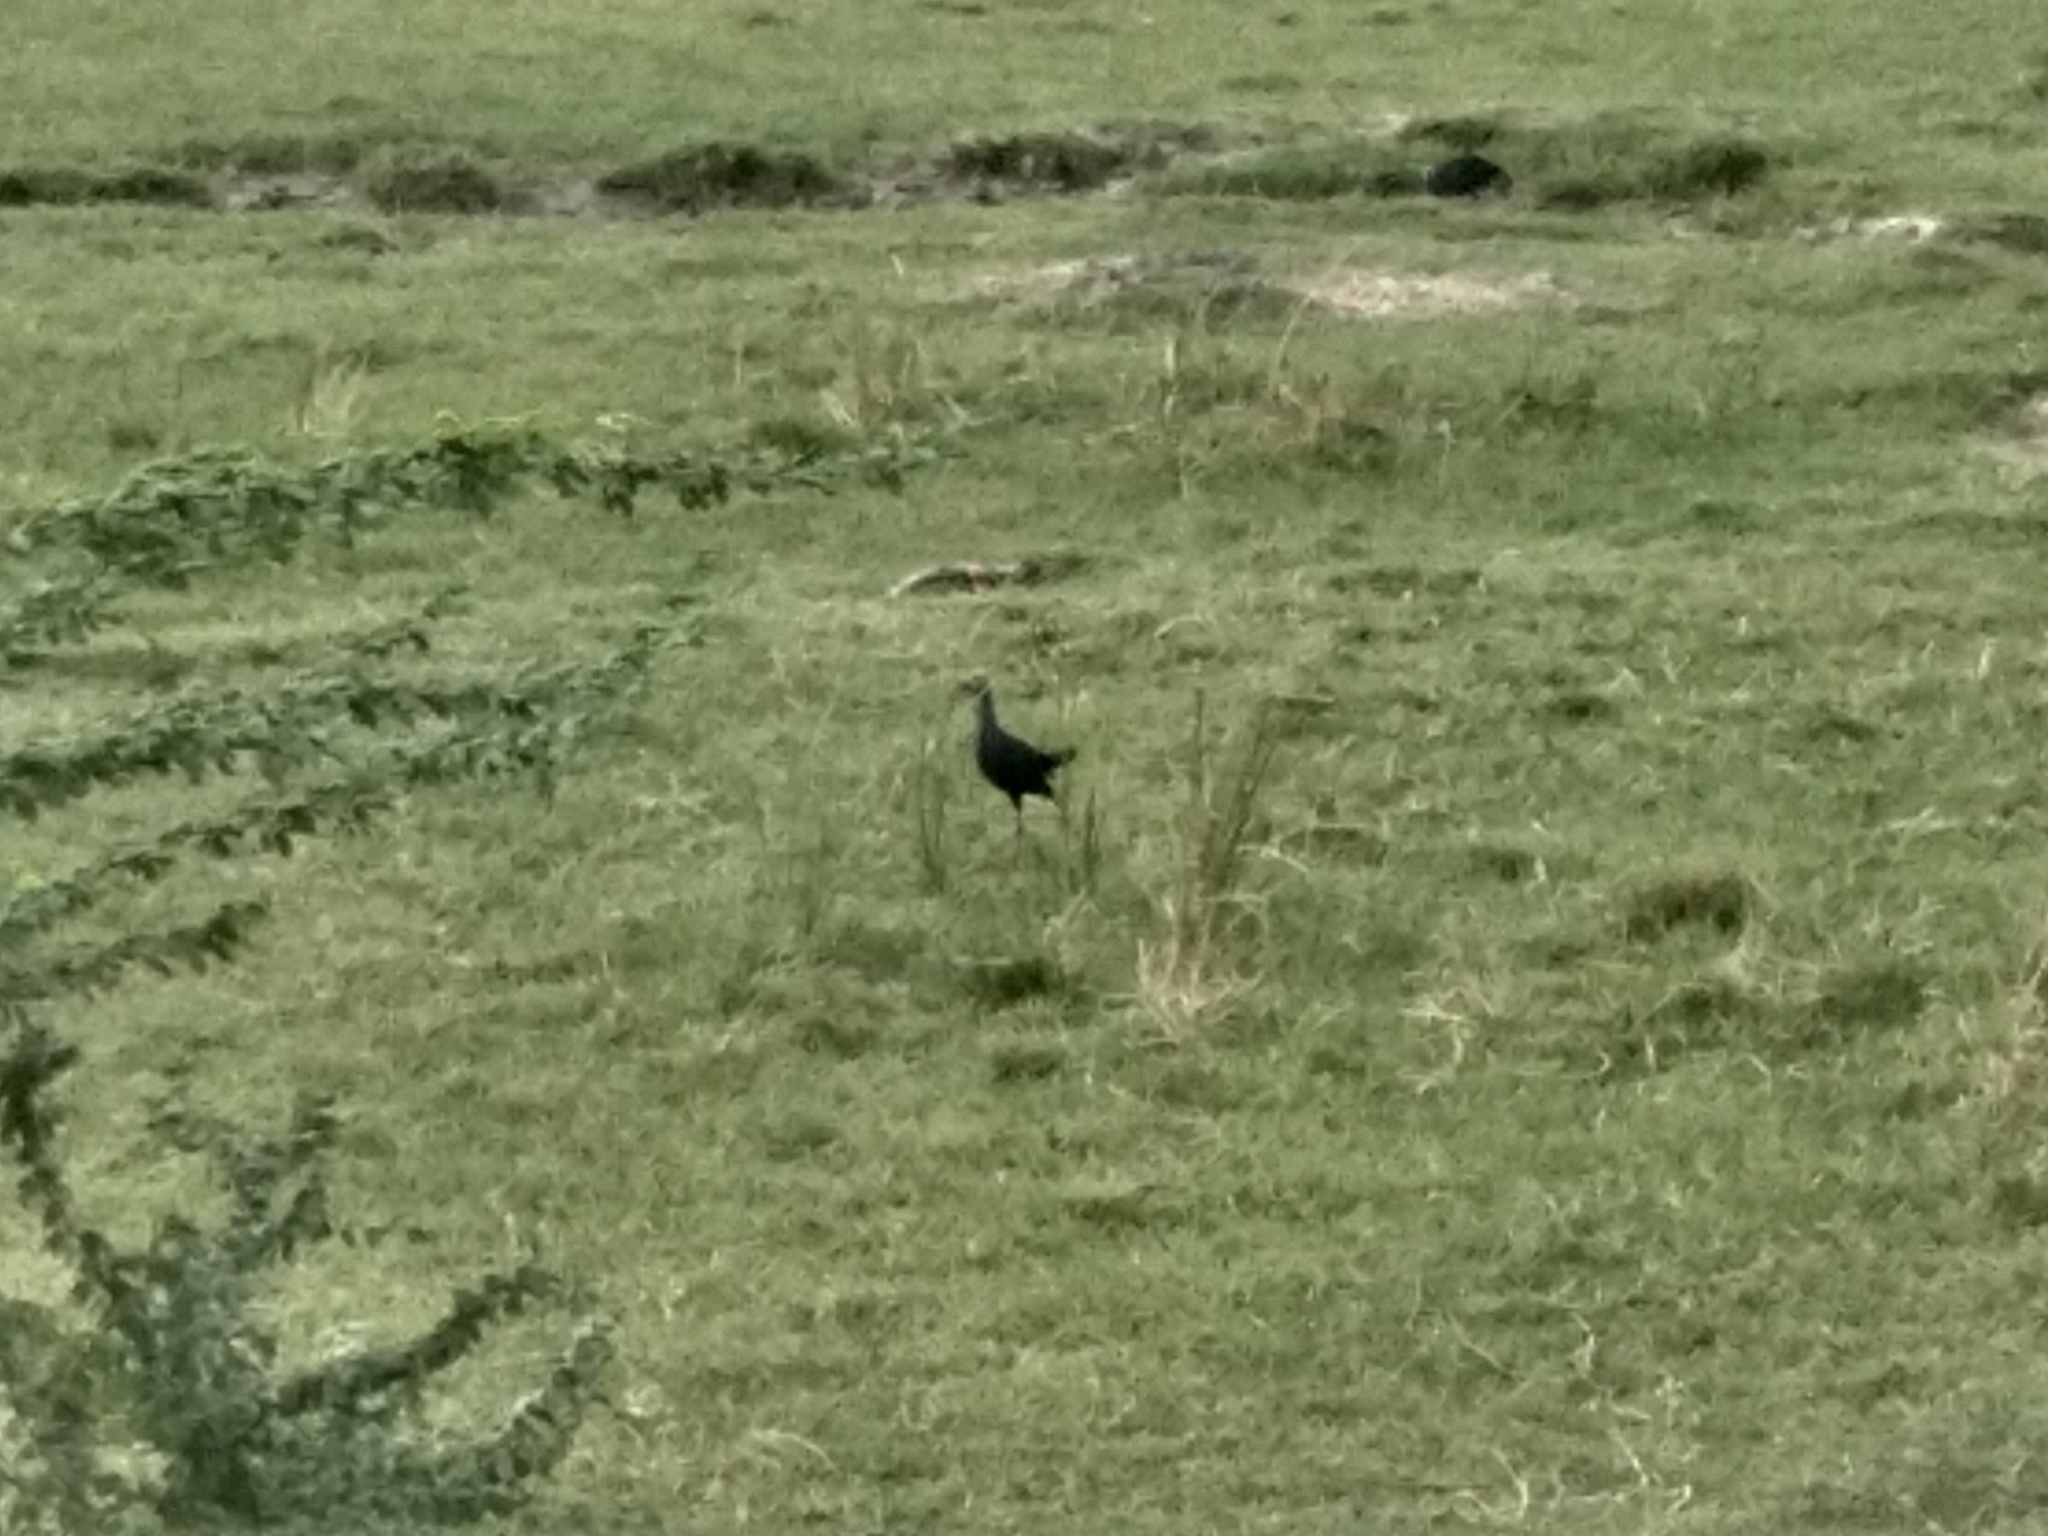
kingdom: Animalia
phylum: Chordata
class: Aves
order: Gruiformes
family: Rallidae
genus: Porphyrio
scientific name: Porphyrio porphyrio
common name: Purple swamphen
